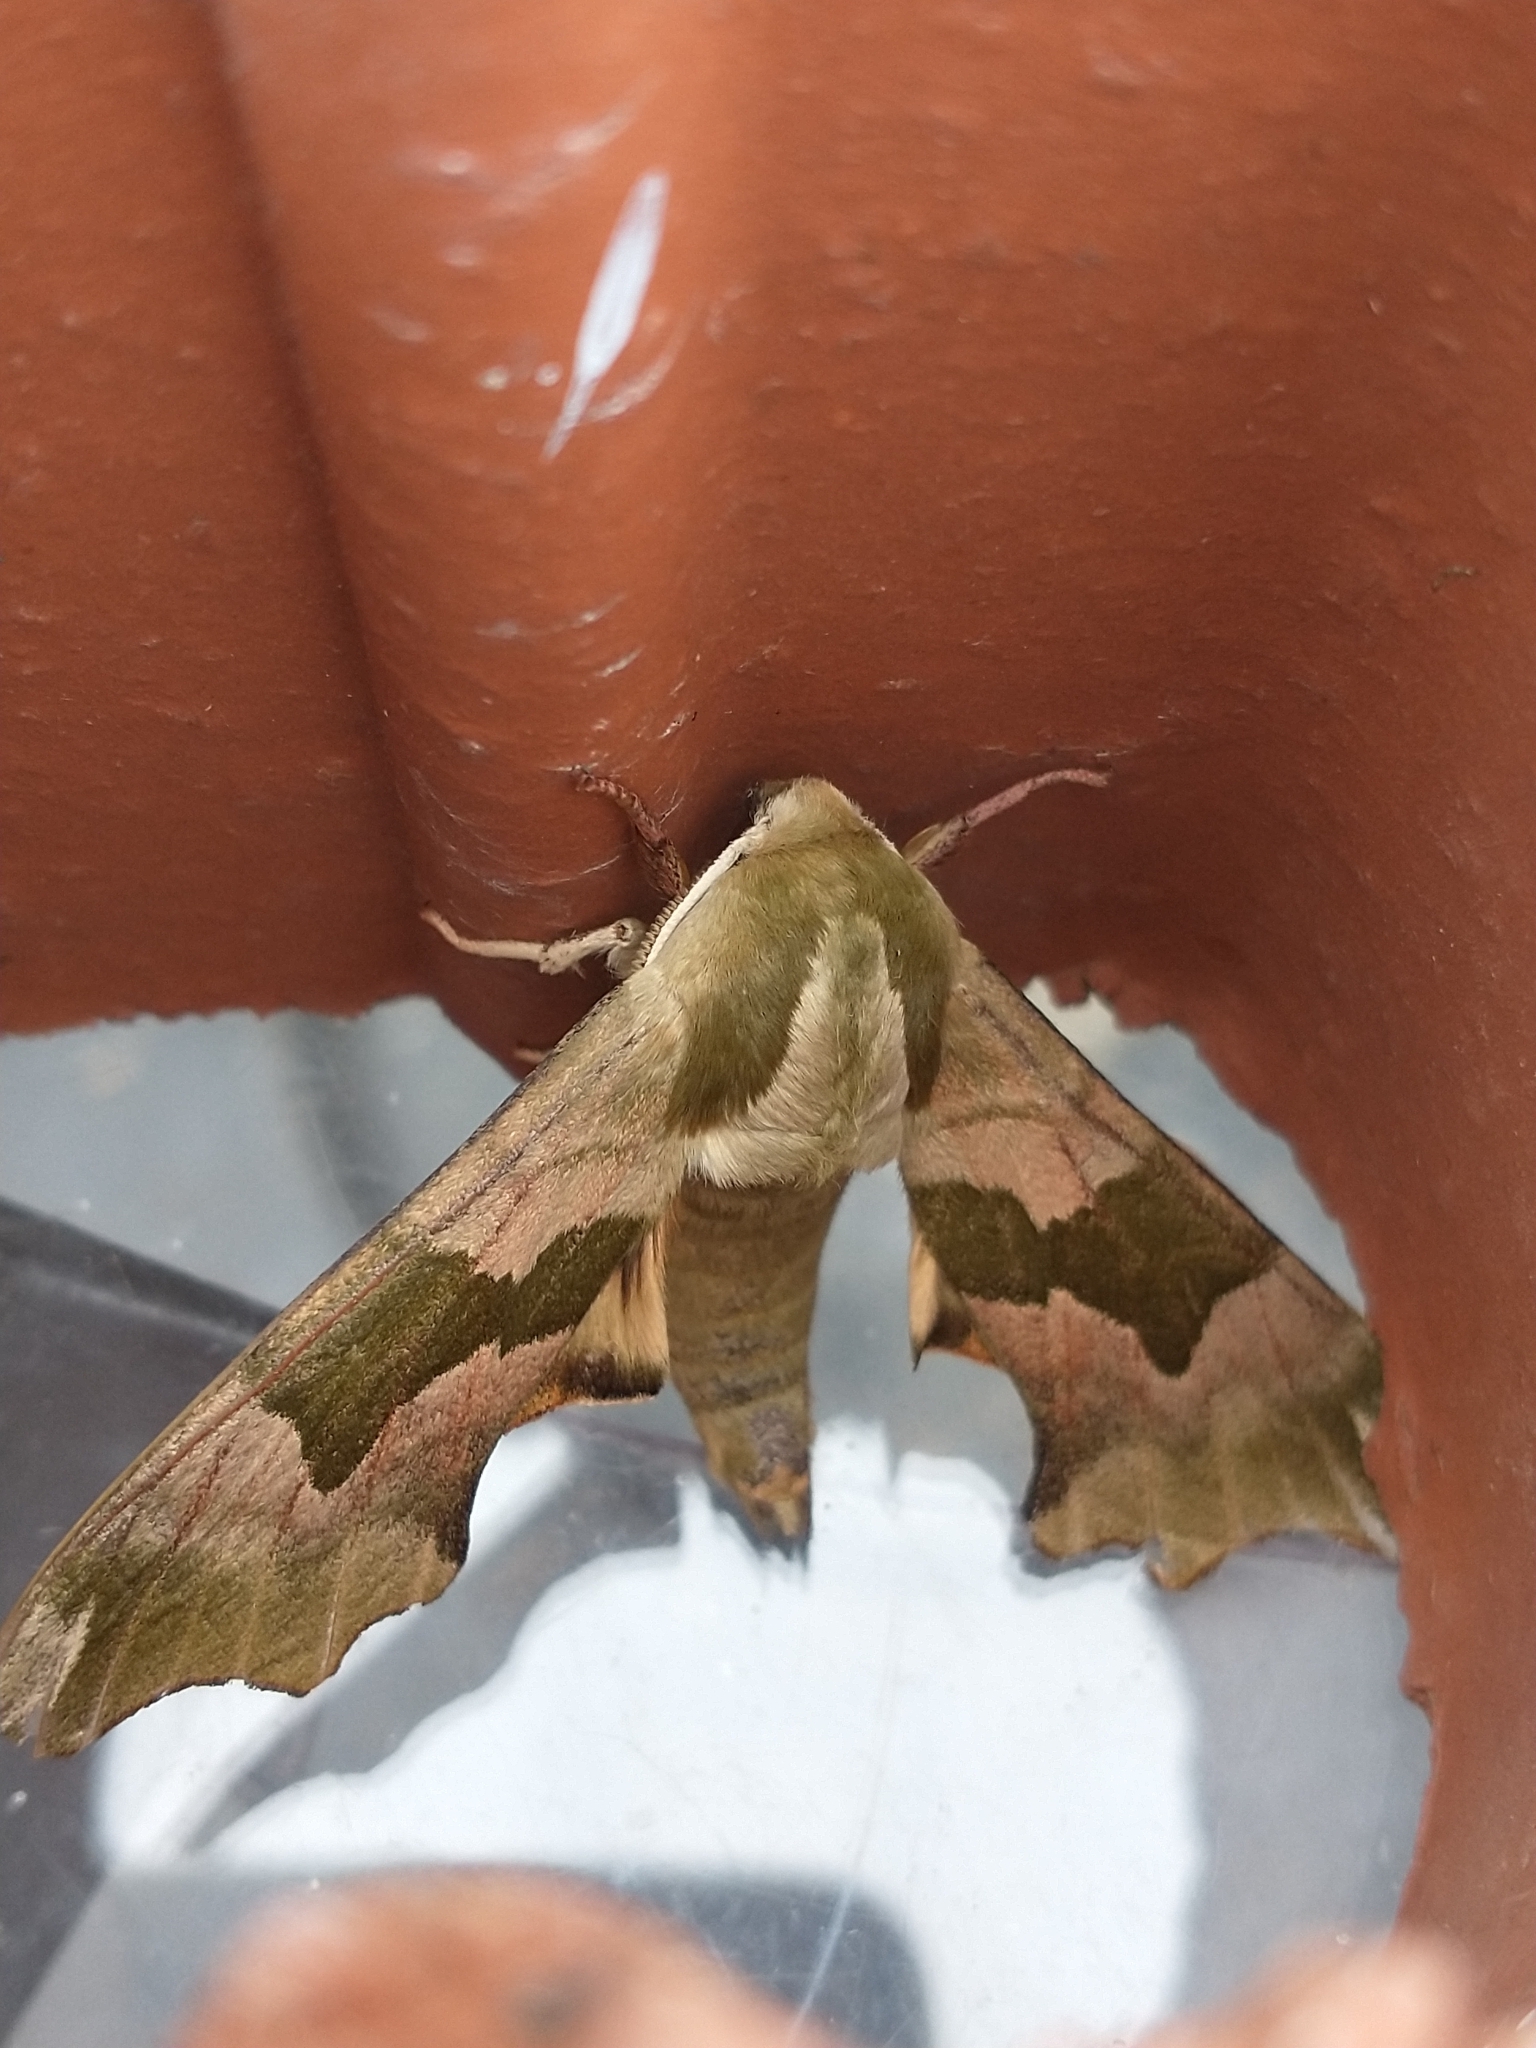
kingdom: Animalia
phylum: Arthropoda
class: Insecta
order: Lepidoptera
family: Sphingidae
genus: Mimas
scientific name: Mimas tiliae
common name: Lime hawk-moth
